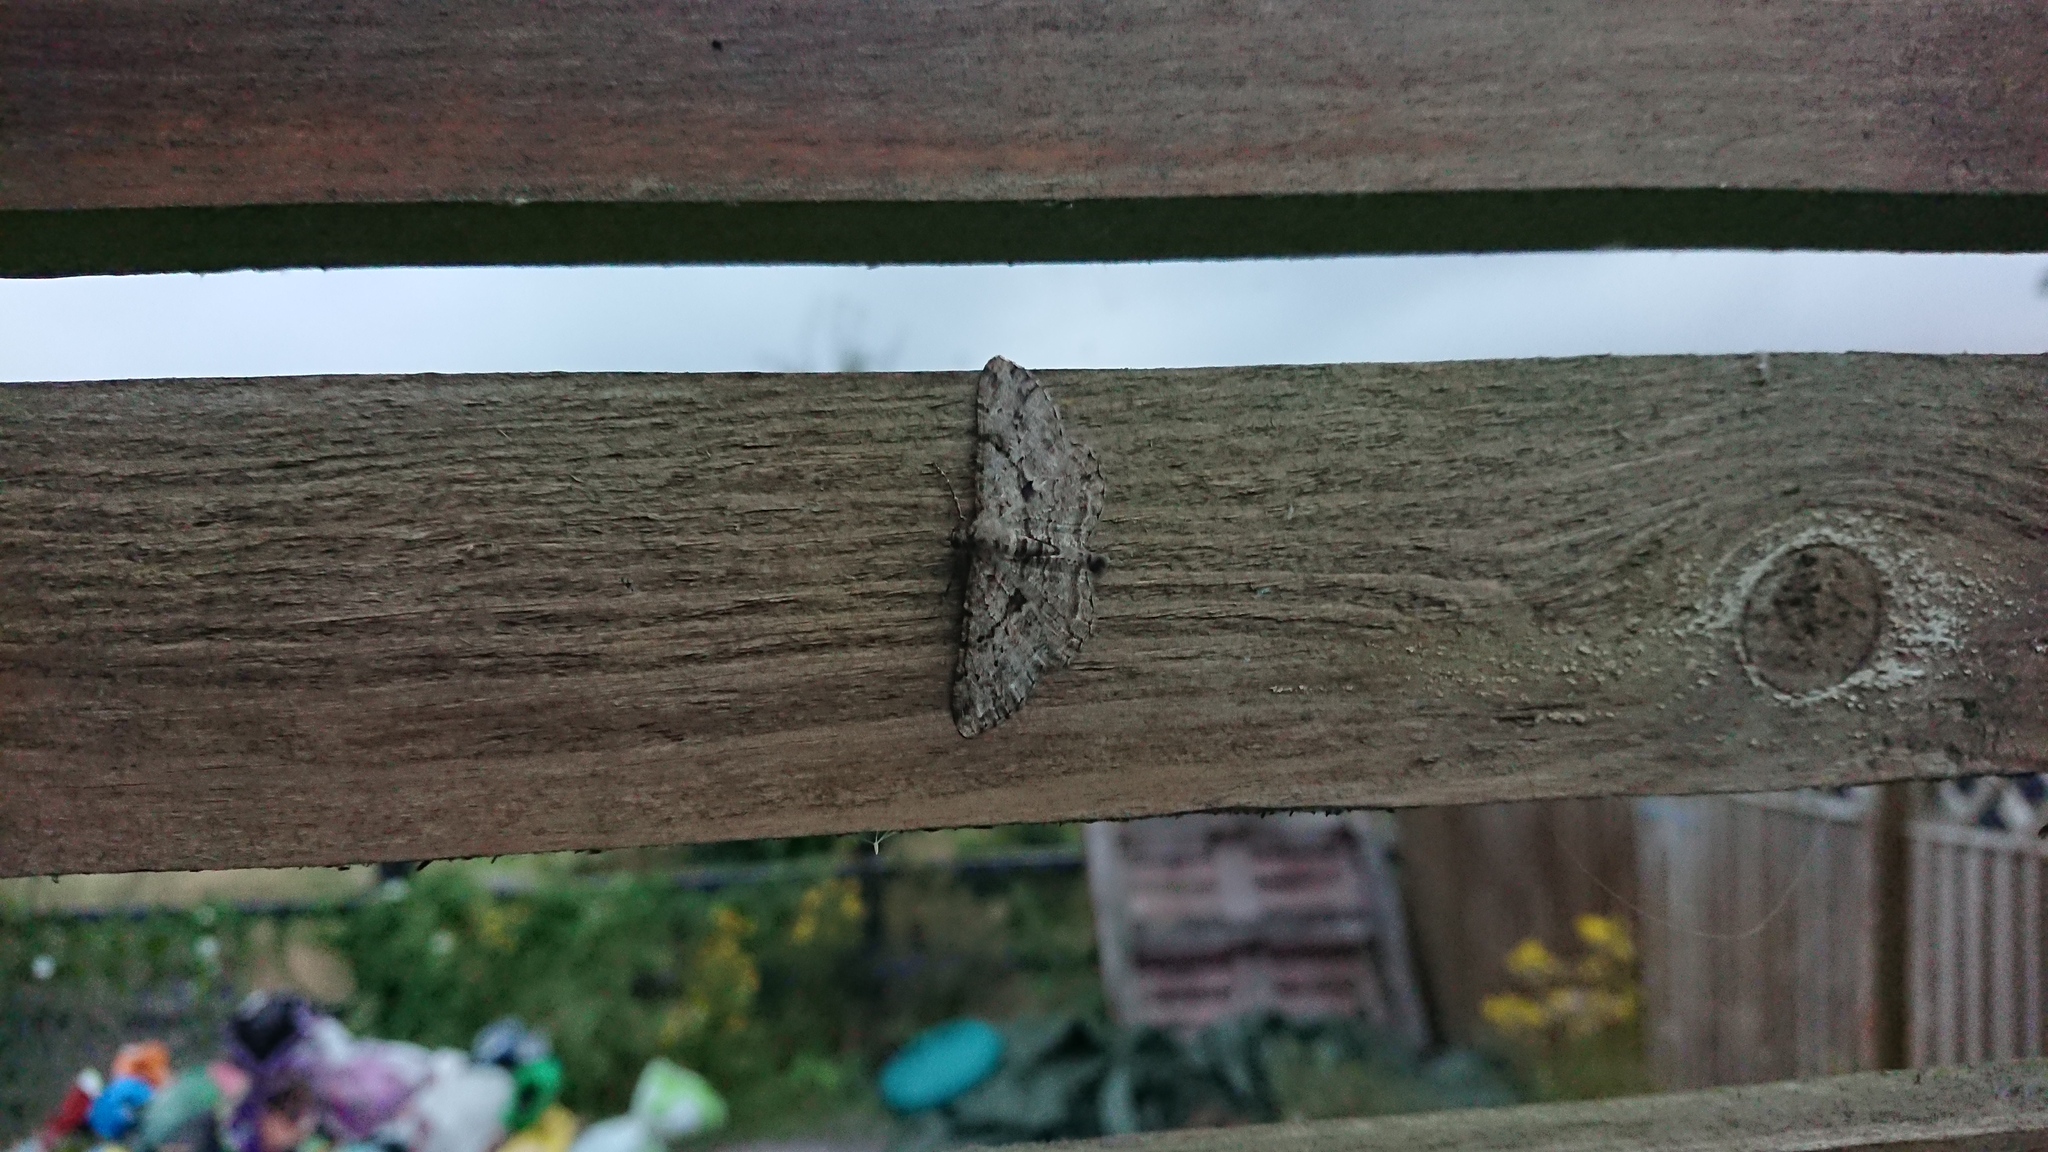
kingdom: Animalia
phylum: Arthropoda
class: Insecta
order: Lepidoptera
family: Geometridae
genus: Peribatodes
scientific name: Peribatodes rhomboidaria
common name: Willow beauty
